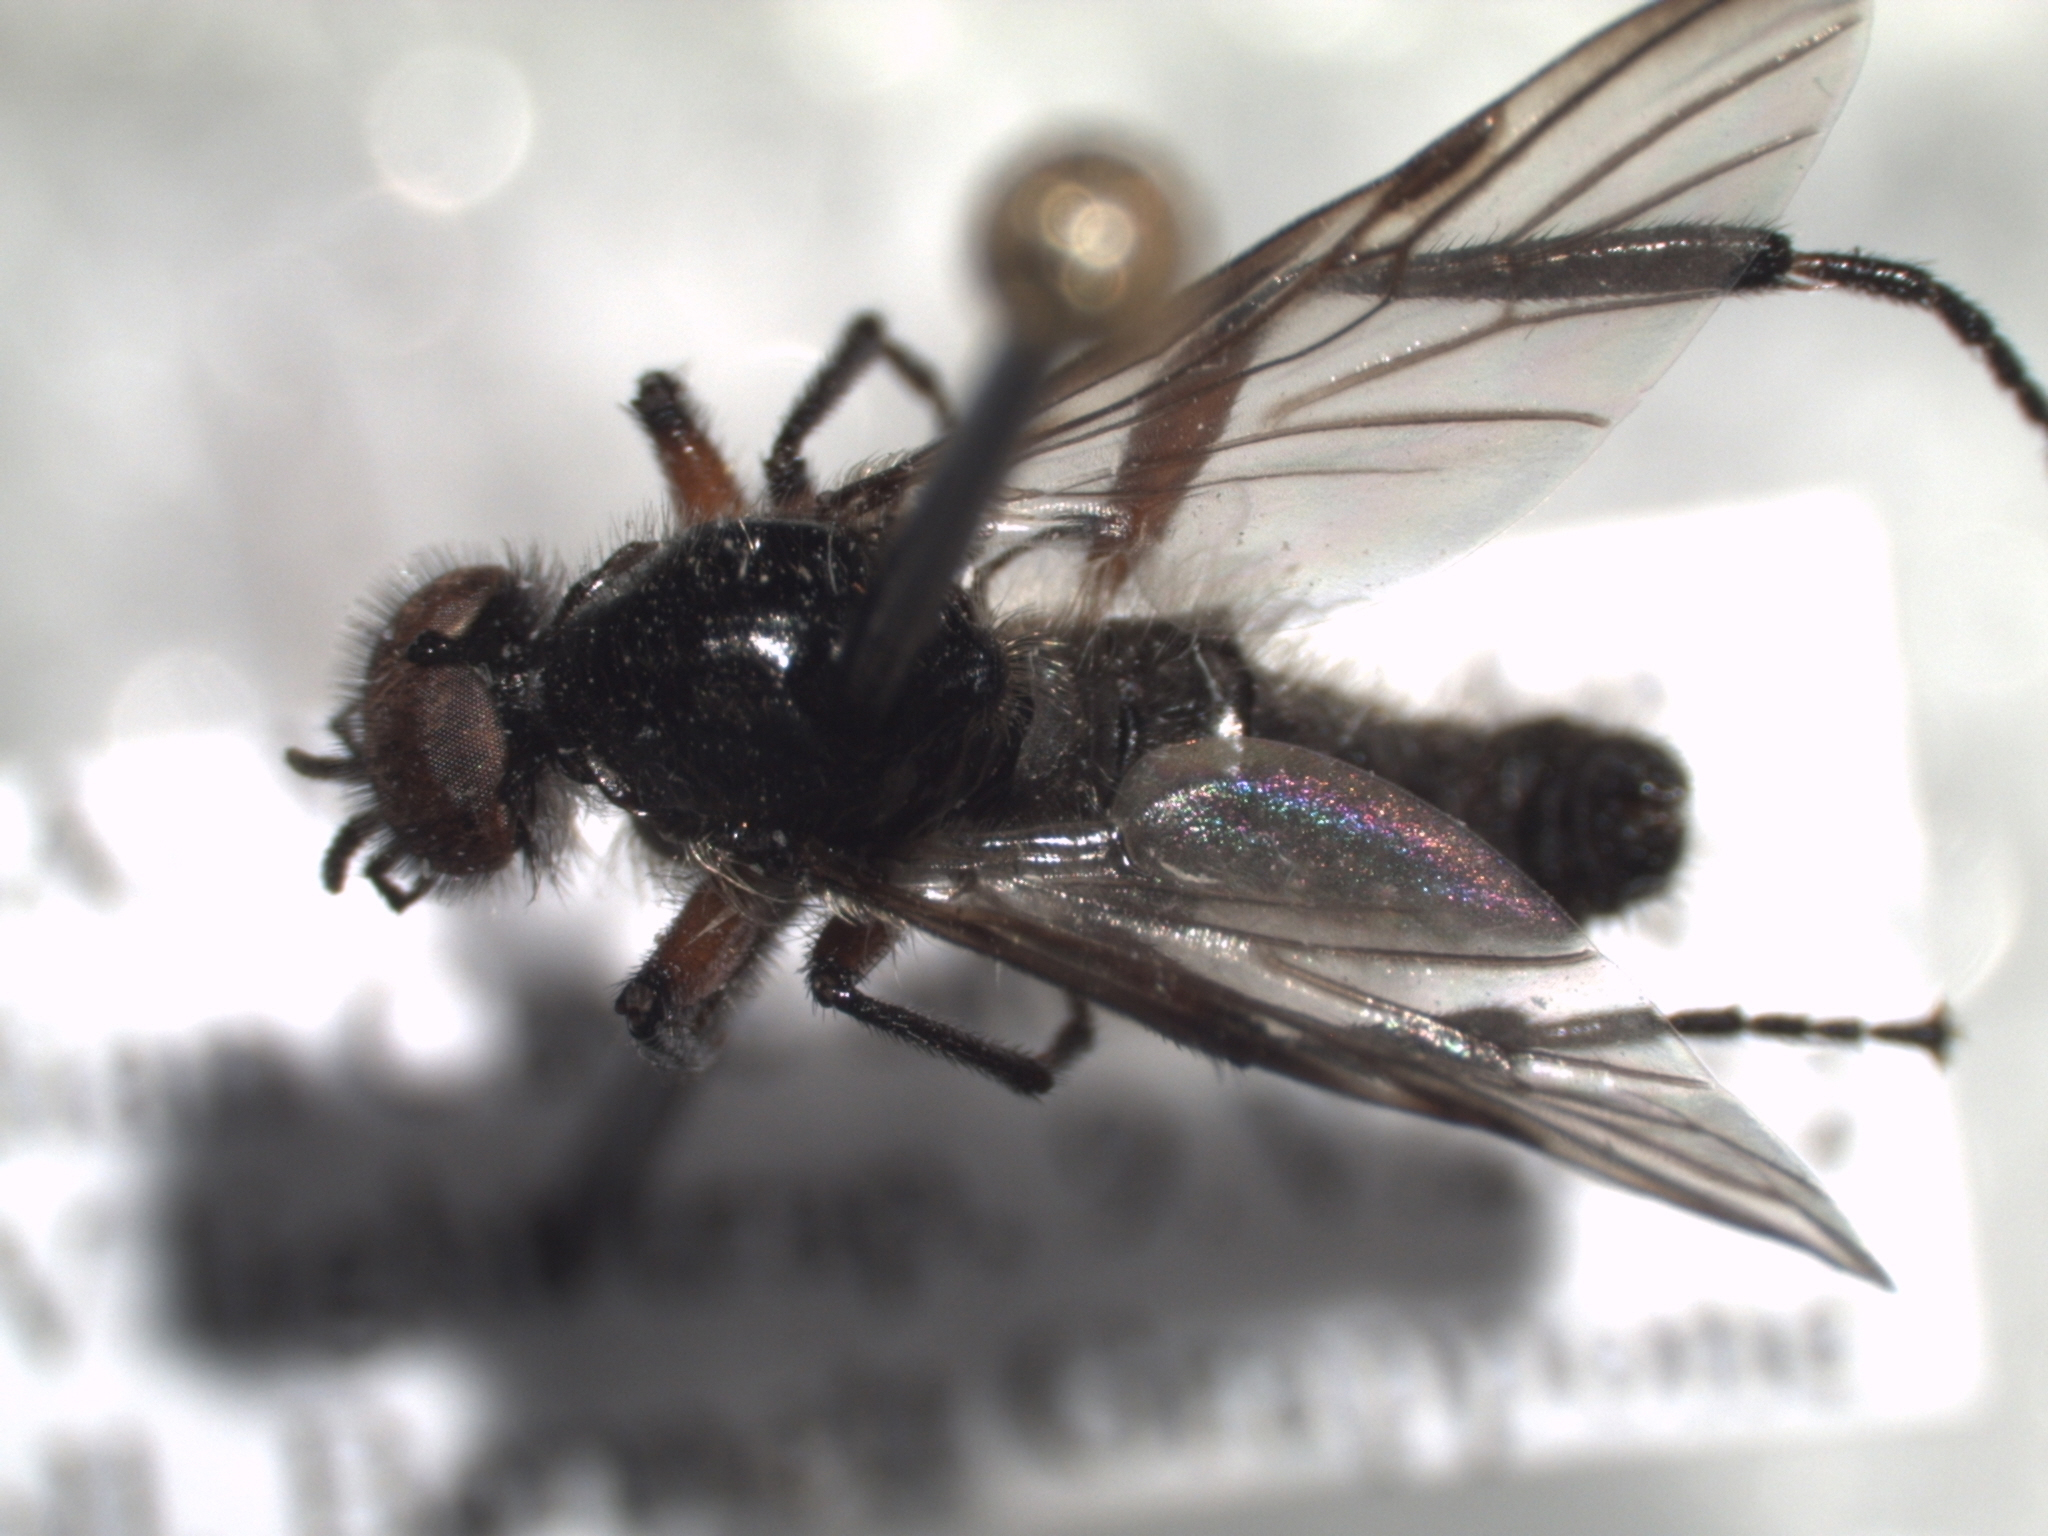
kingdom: Animalia
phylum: Arthropoda
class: Insecta
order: Diptera
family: Bibionidae
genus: Bibio
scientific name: Bibio femoratus
